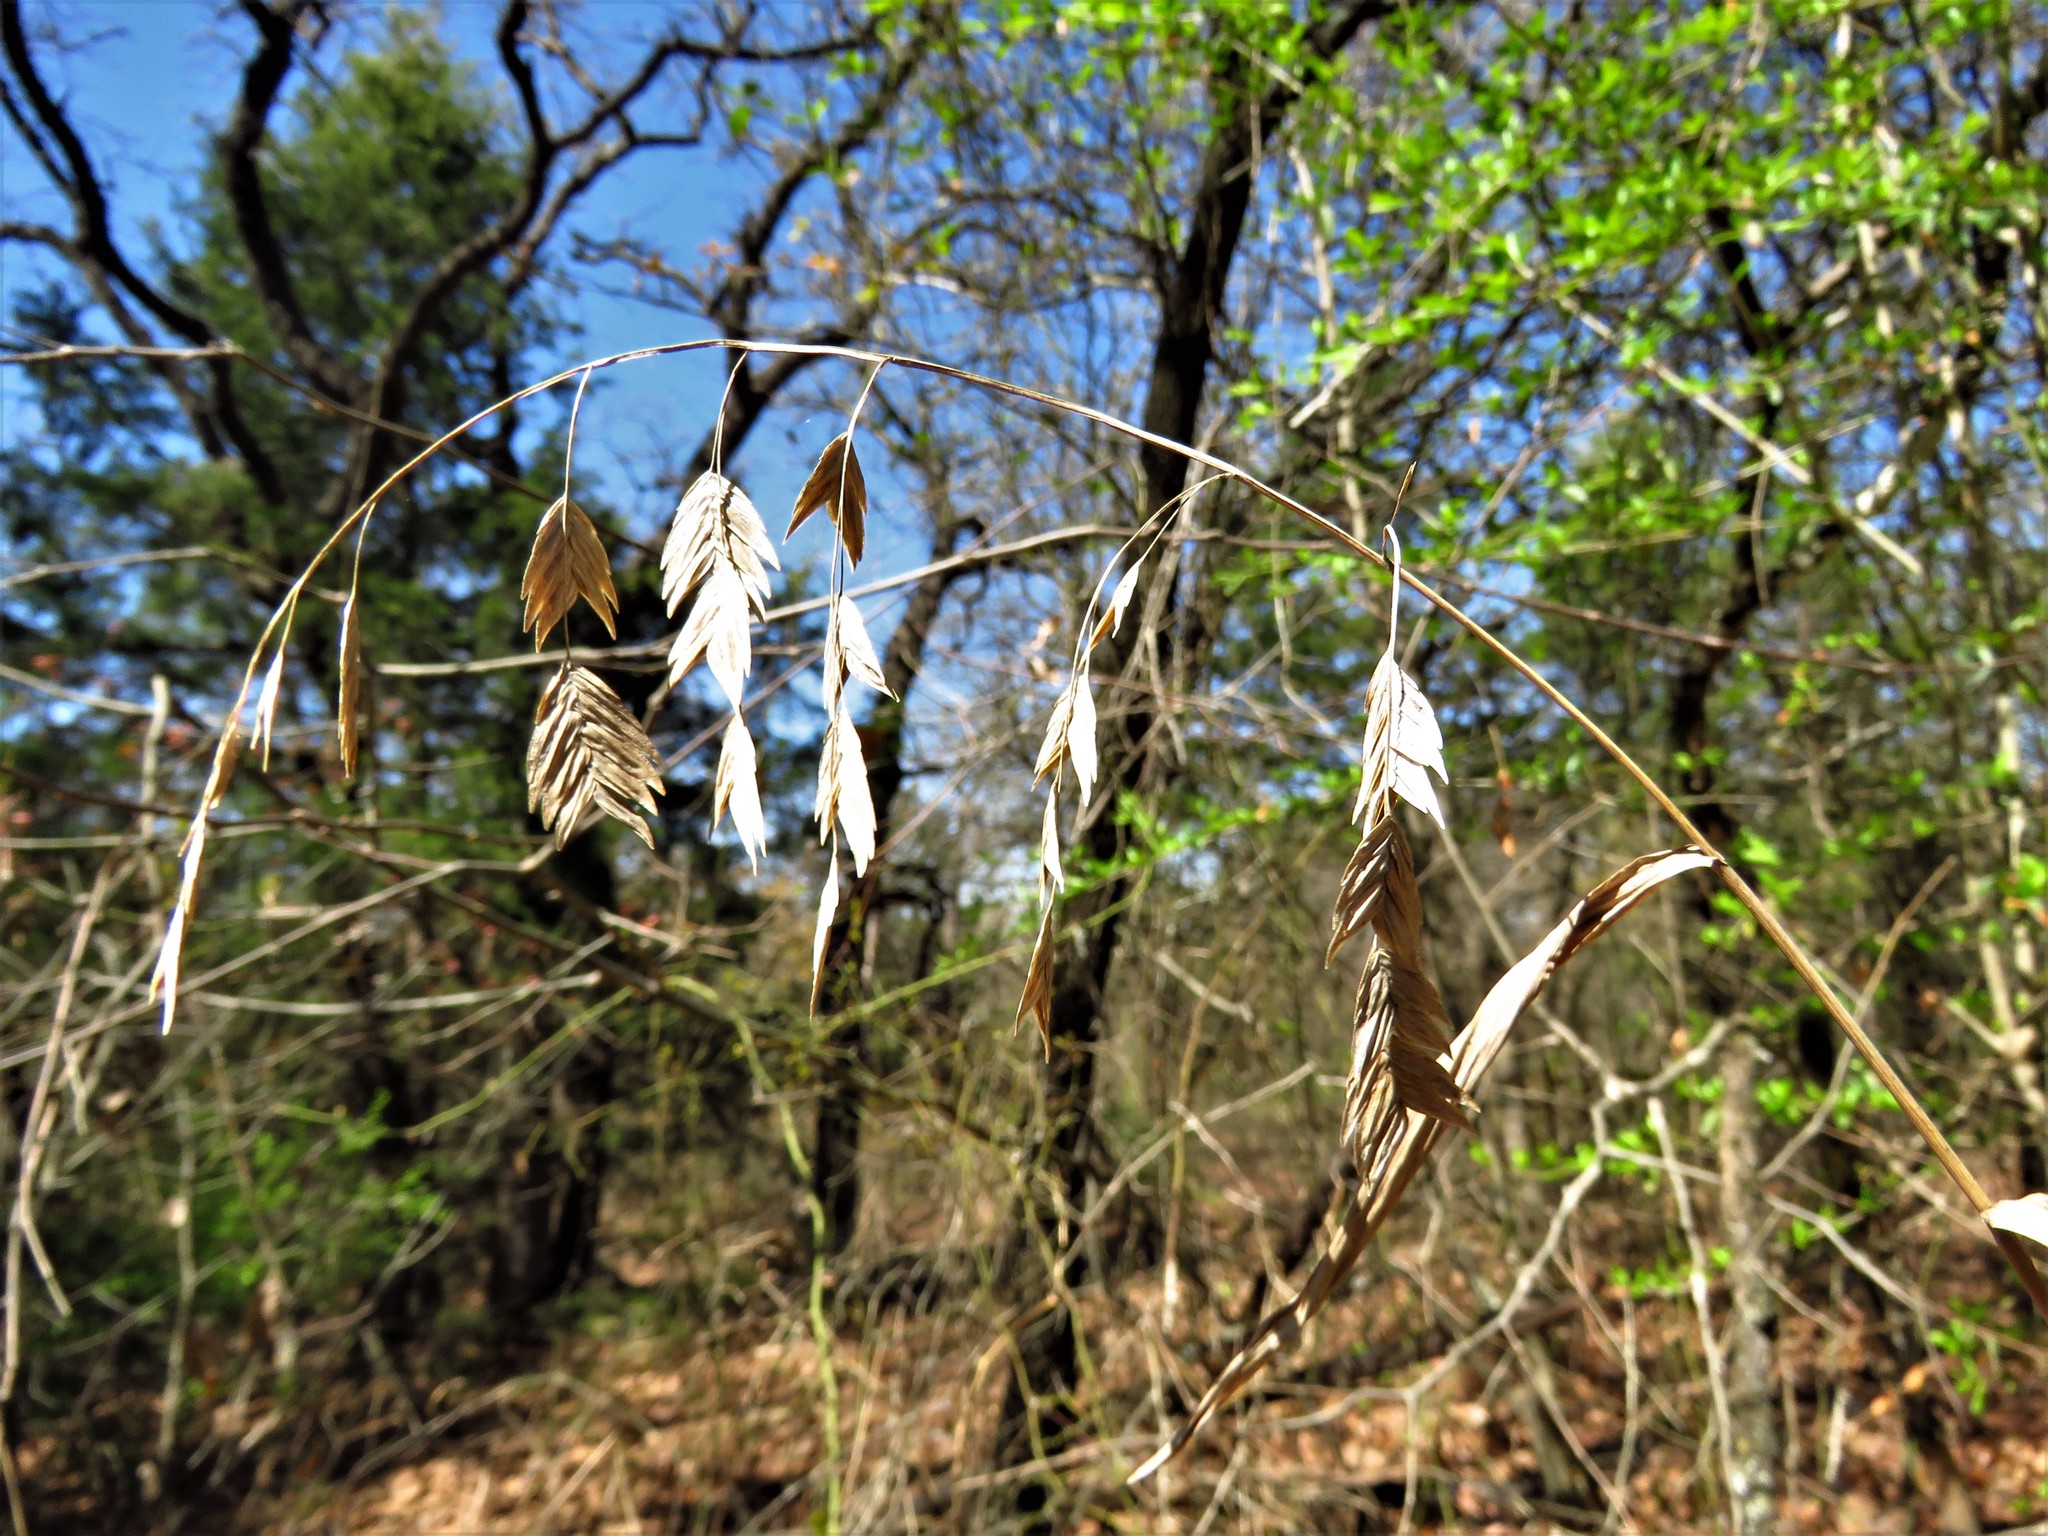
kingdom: Plantae
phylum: Tracheophyta
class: Liliopsida
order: Poales
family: Poaceae
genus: Chasmanthium
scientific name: Chasmanthium latifolium
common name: Broad-leaved chasmanthium
